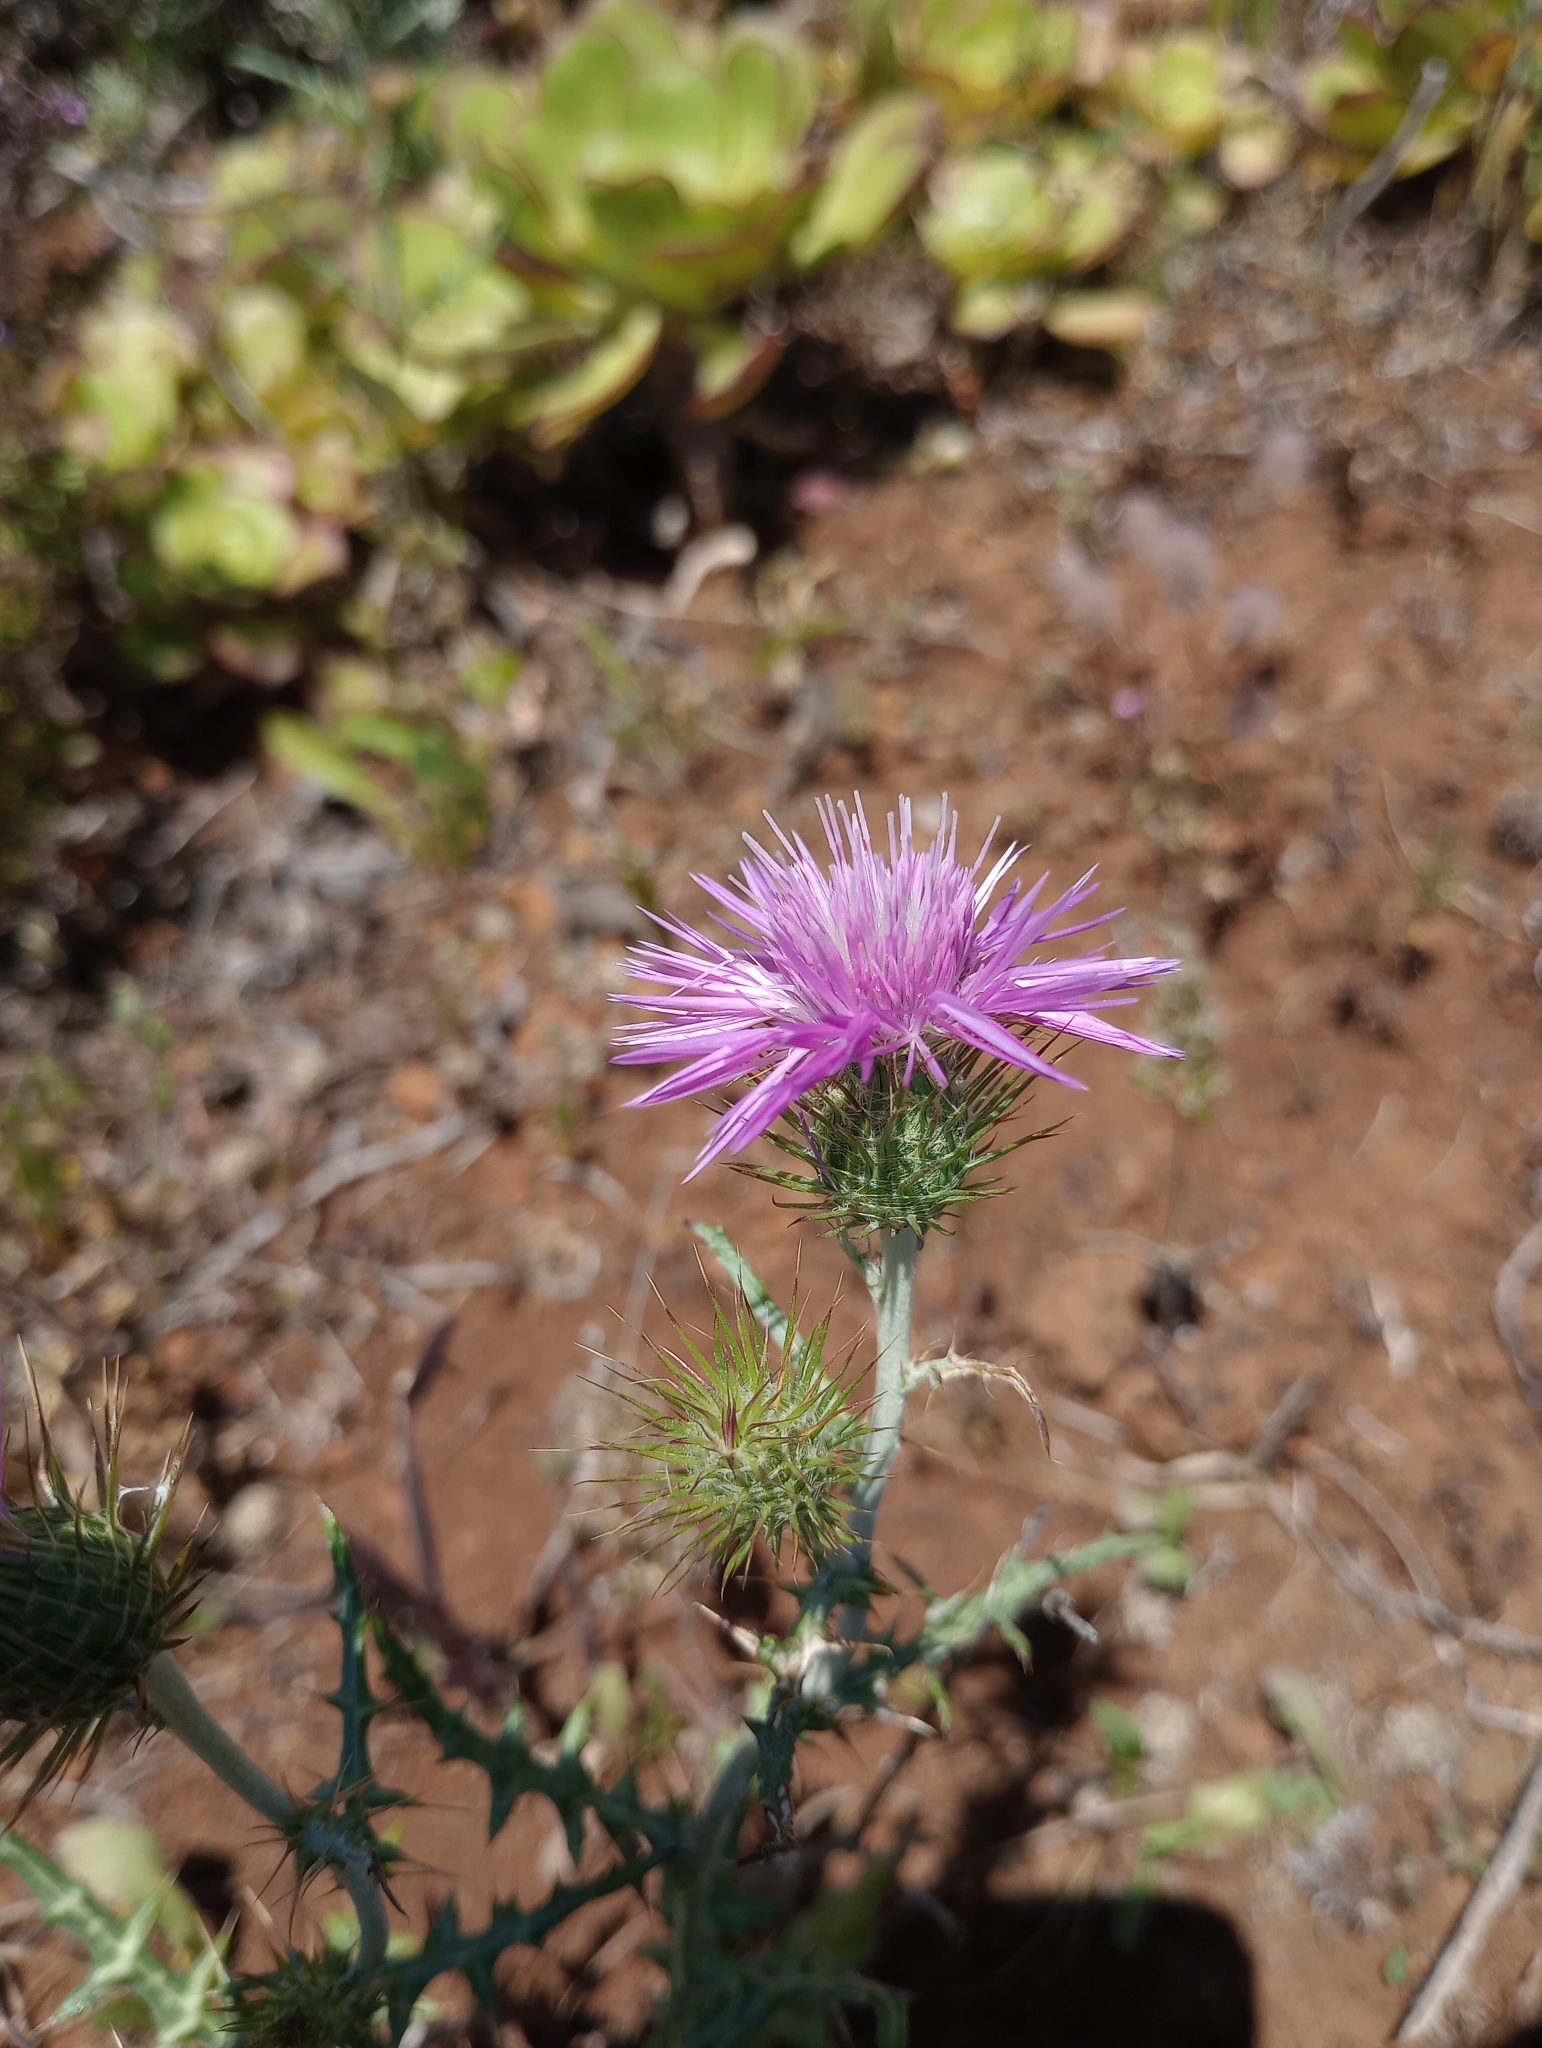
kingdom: Plantae
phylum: Tracheophyta
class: Magnoliopsida
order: Asterales
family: Asteraceae
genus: Galactites
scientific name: Galactites tomentosa
